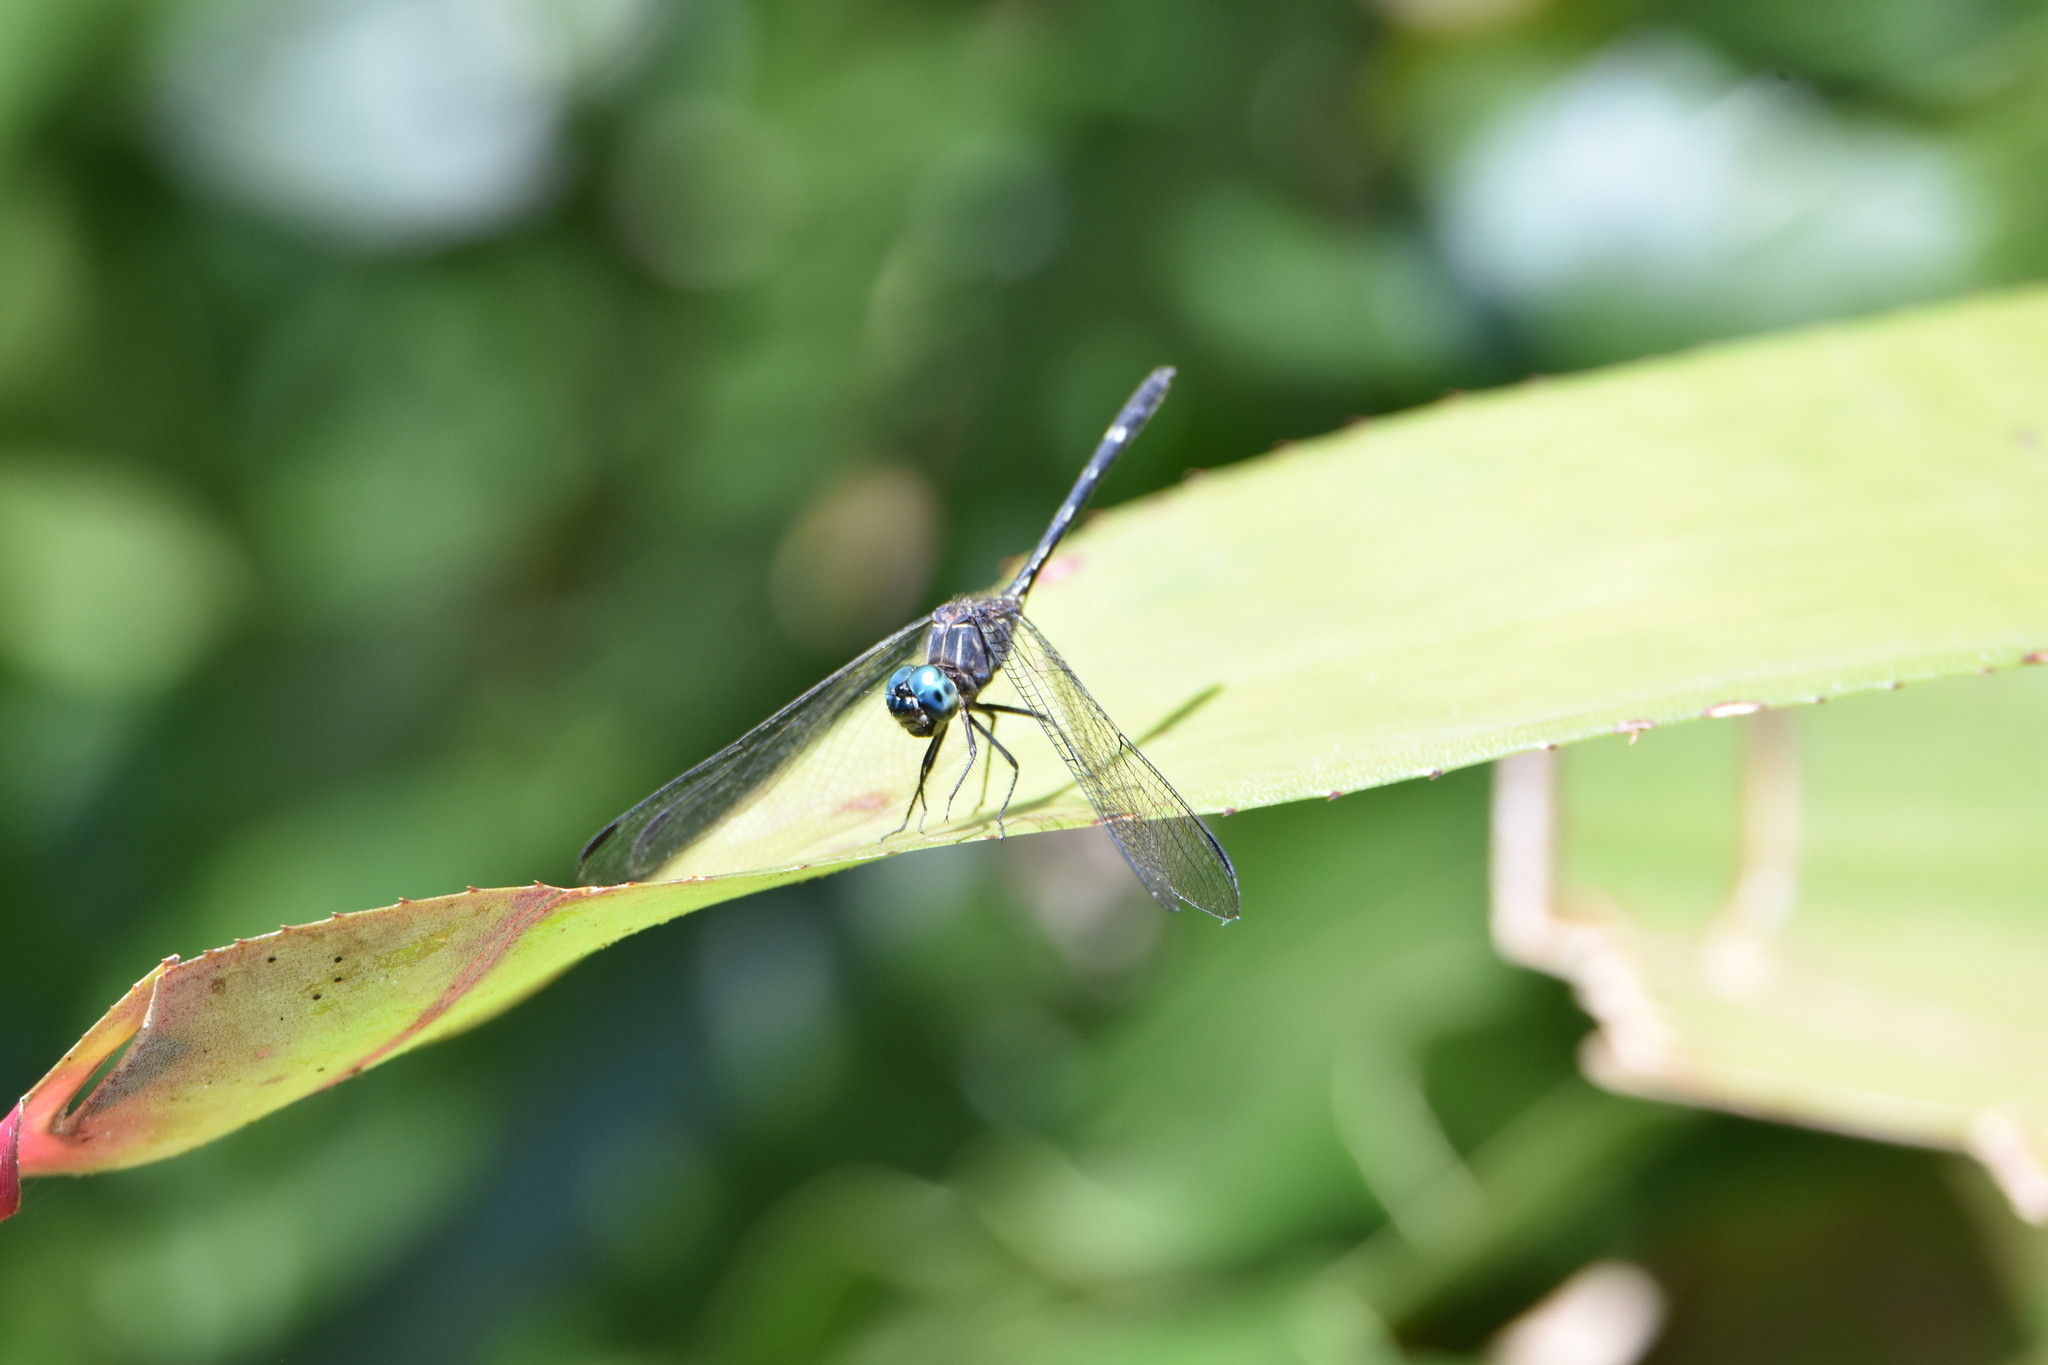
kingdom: Animalia
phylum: Arthropoda
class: Insecta
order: Odonata
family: Libellulidae
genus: Dythemis
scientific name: Dythemis nigra
